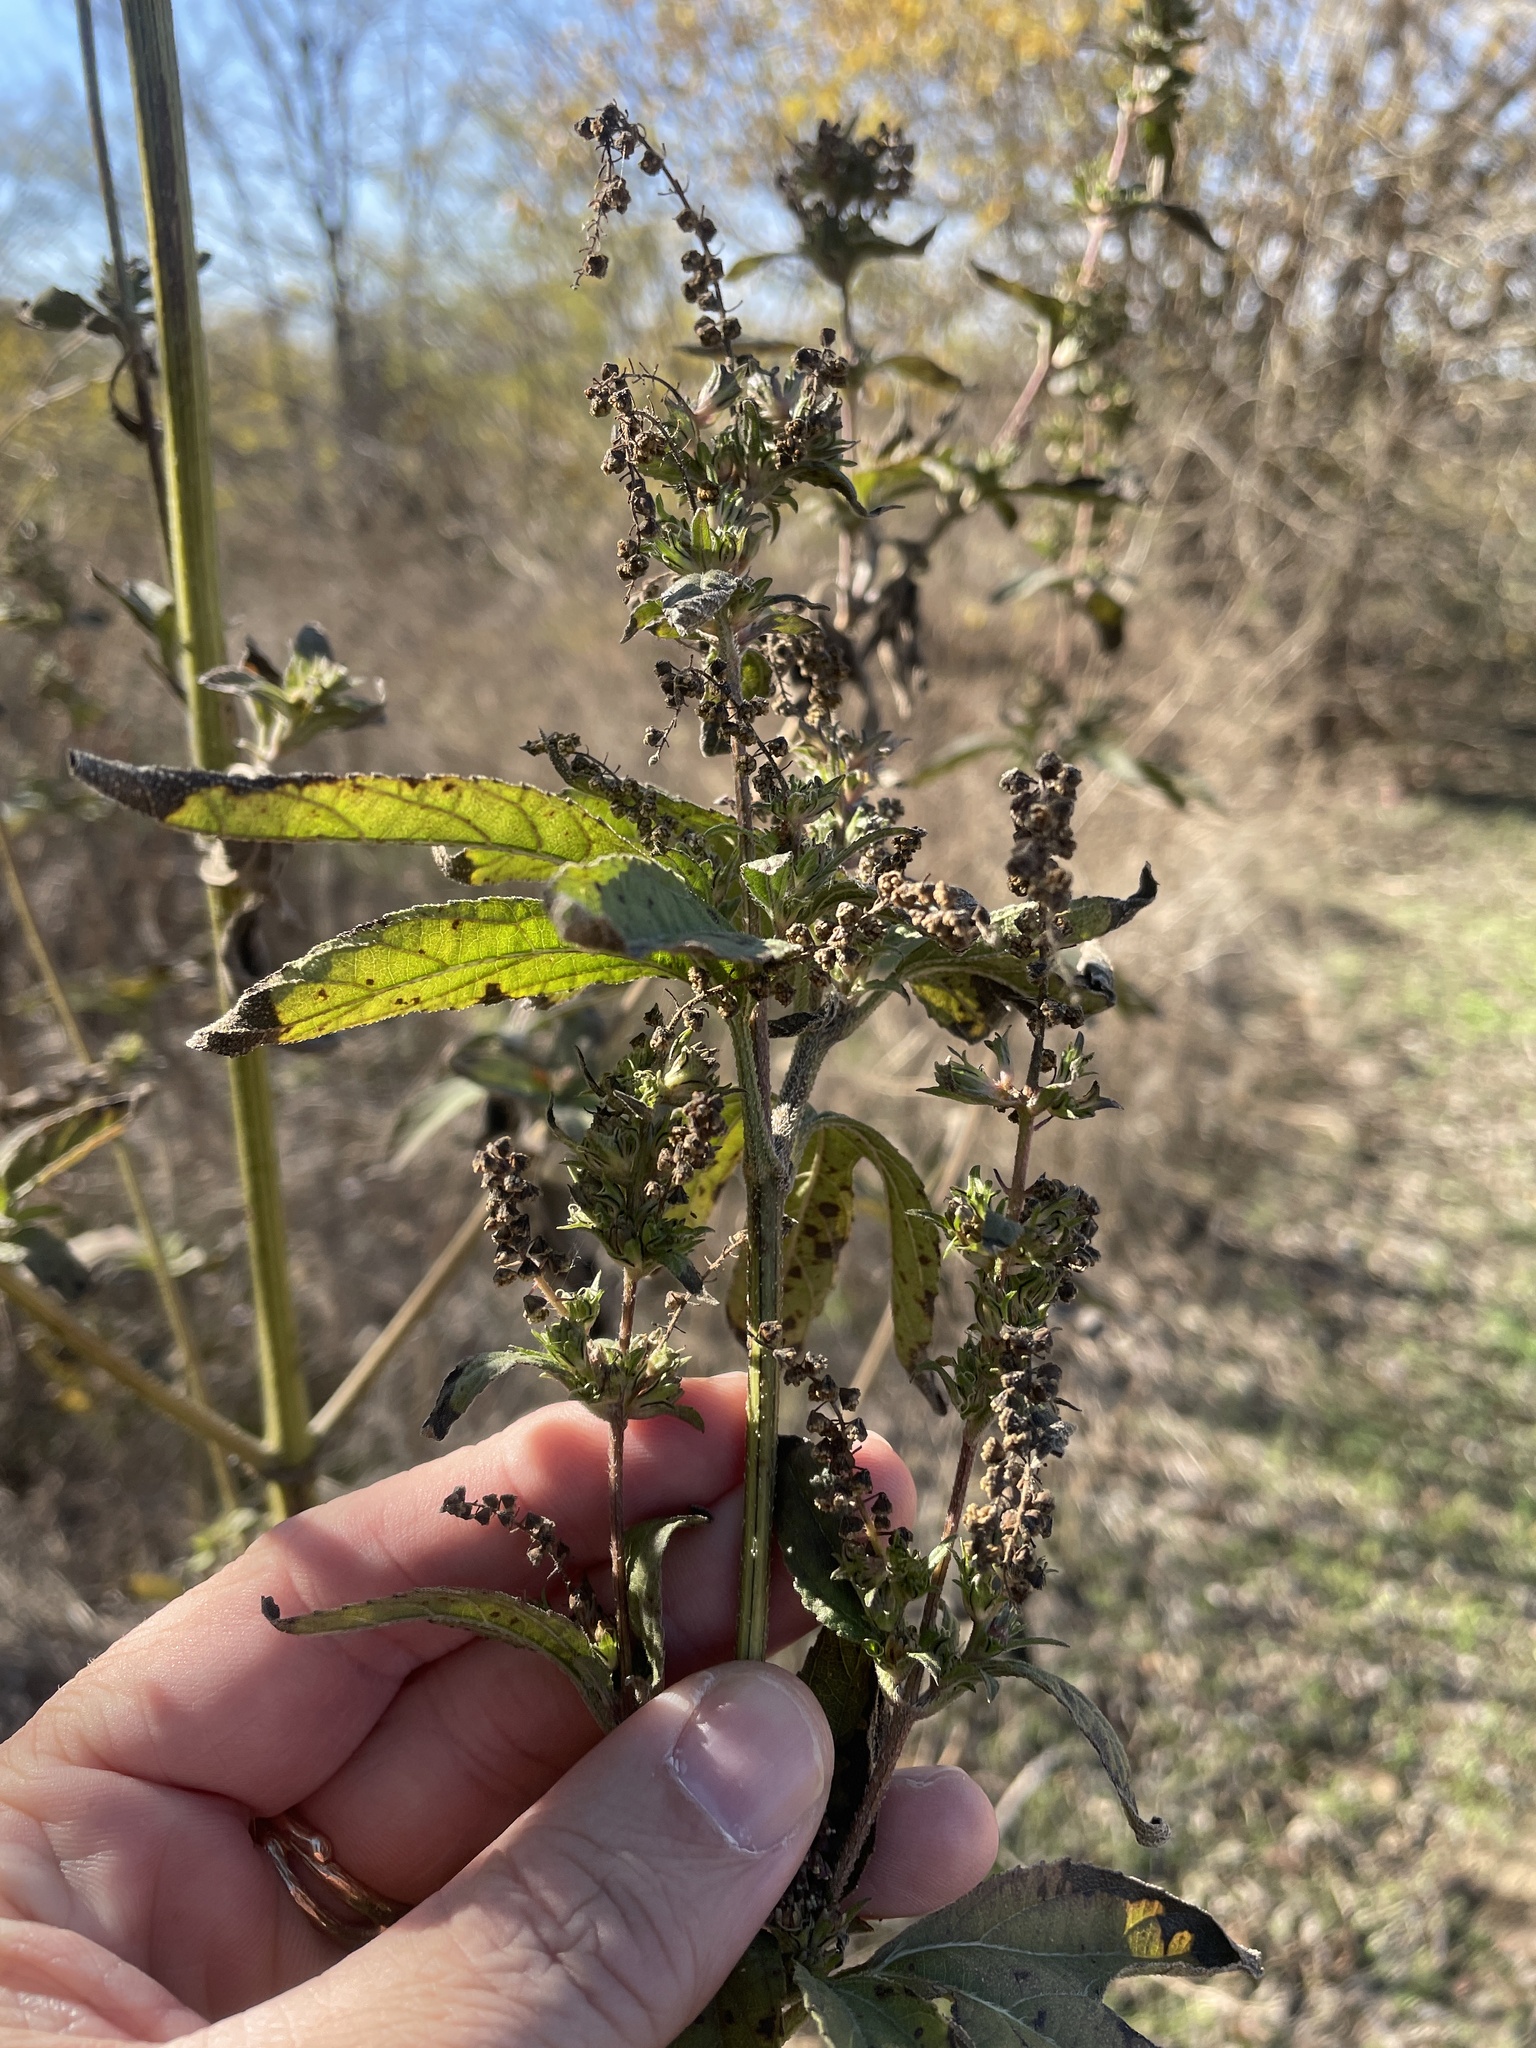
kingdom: Plantae
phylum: Tracheophyta
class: Magnoliopsida
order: Asterales
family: Asteraceae
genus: Ambrosia
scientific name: Ambrosia trifida
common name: Giant ragweed
